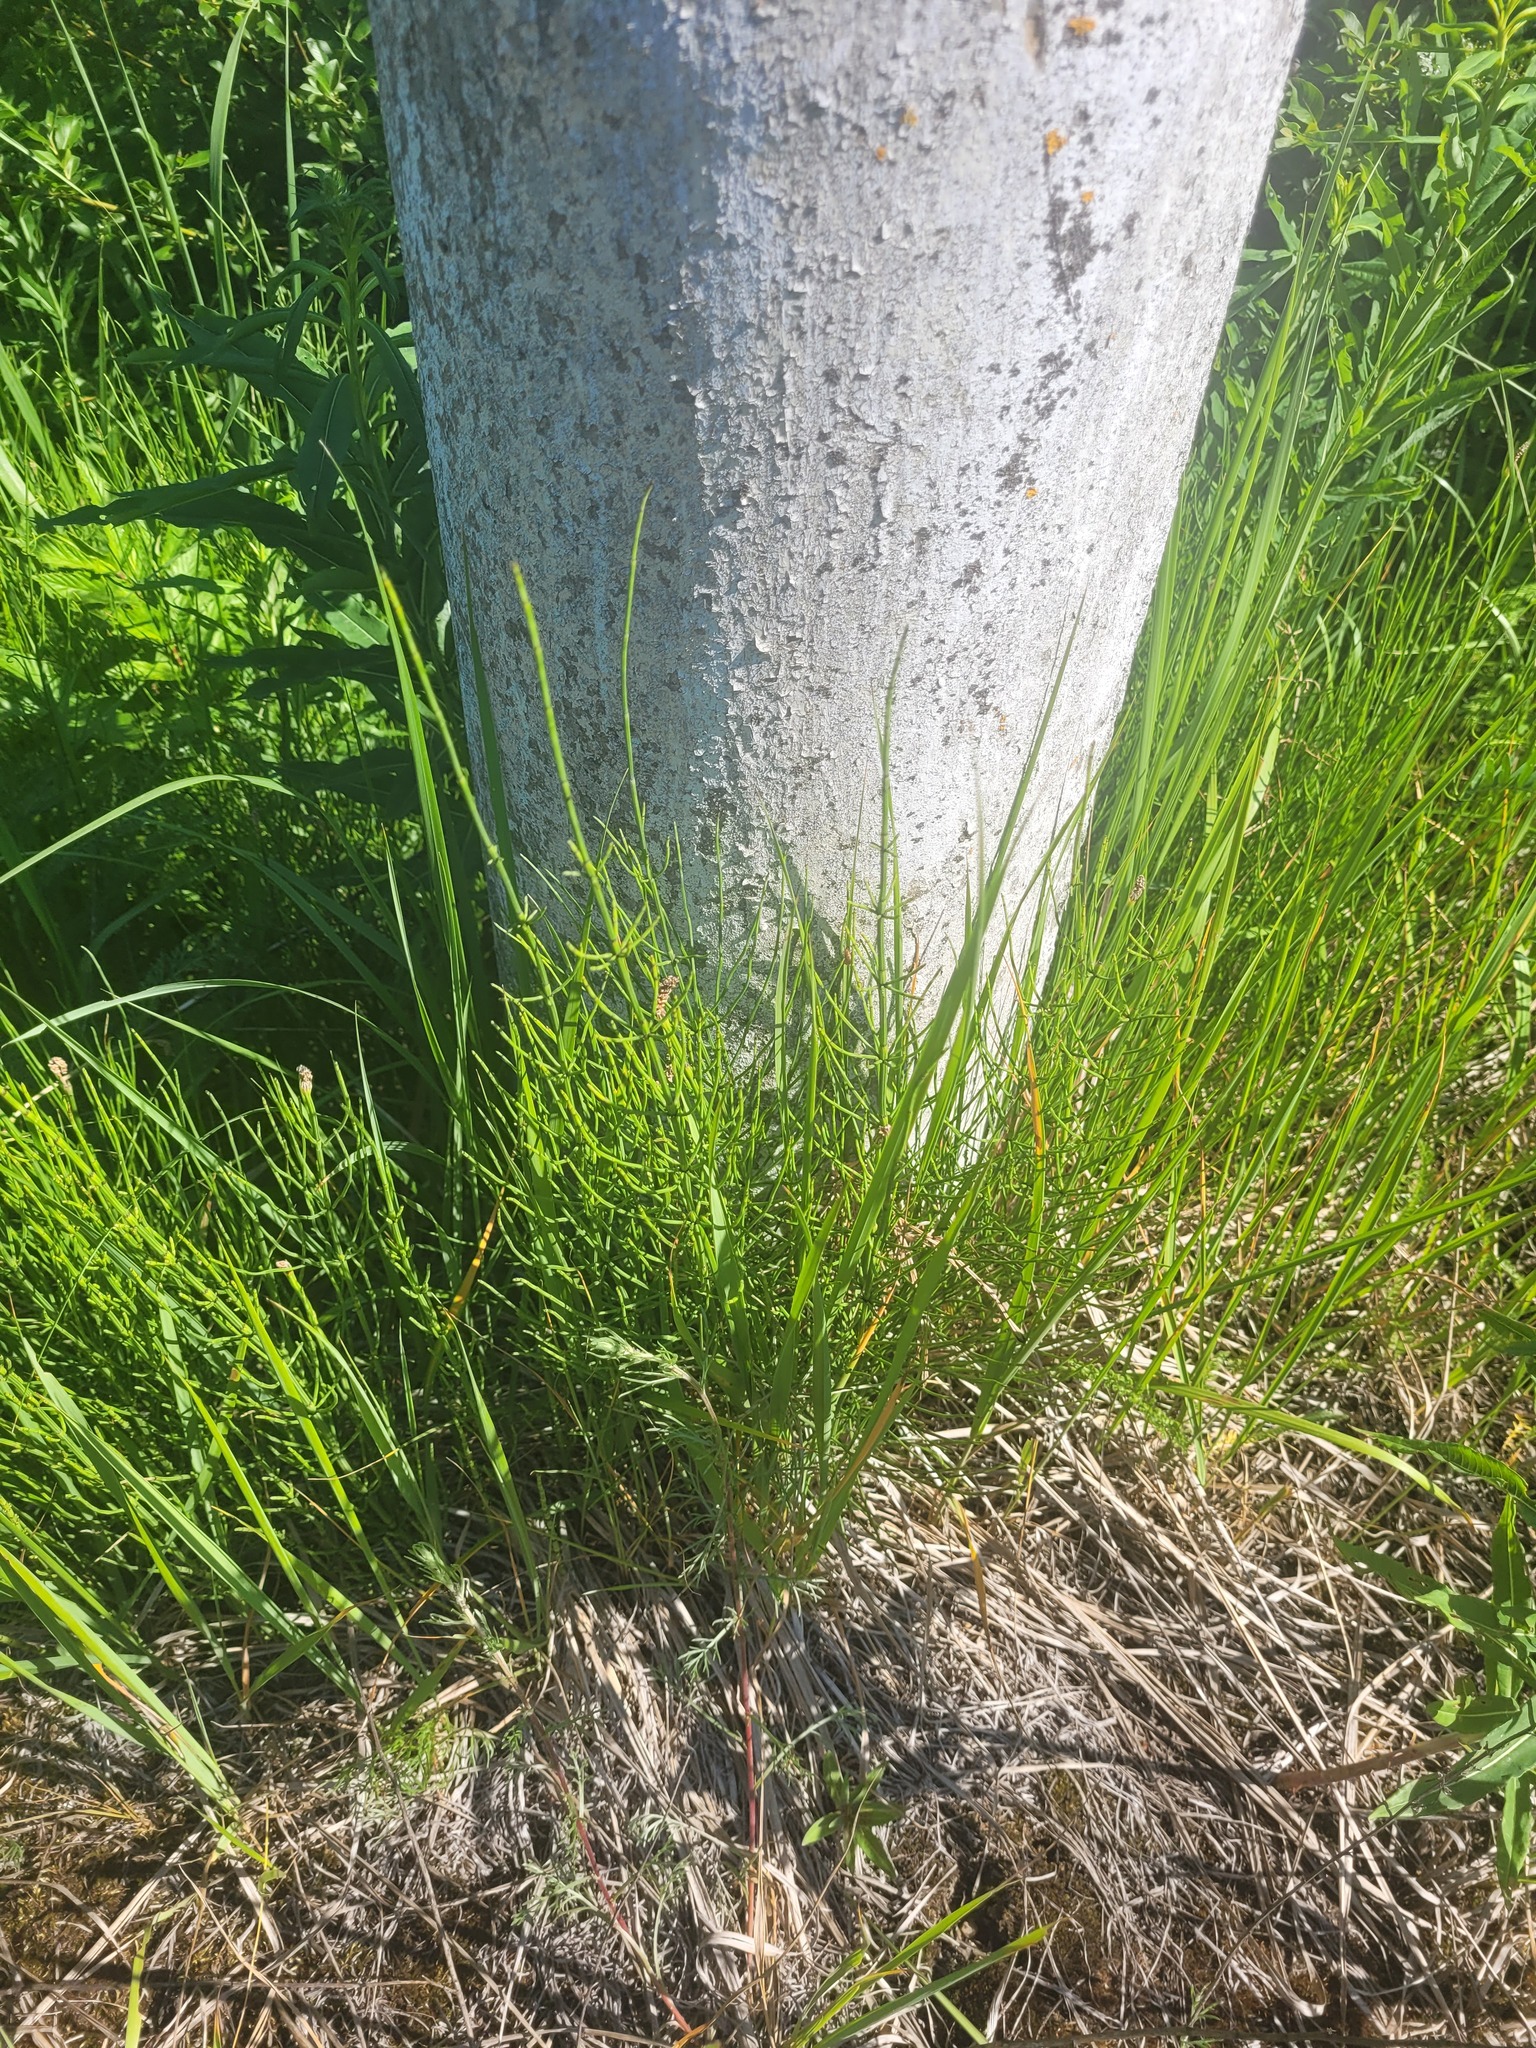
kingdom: Plantae
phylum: Tracheophyta
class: Polypodiopsida
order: Equisetales
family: Equisetaceae
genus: Equisetum
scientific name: Equisetum palustre
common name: Marsh horsetail
